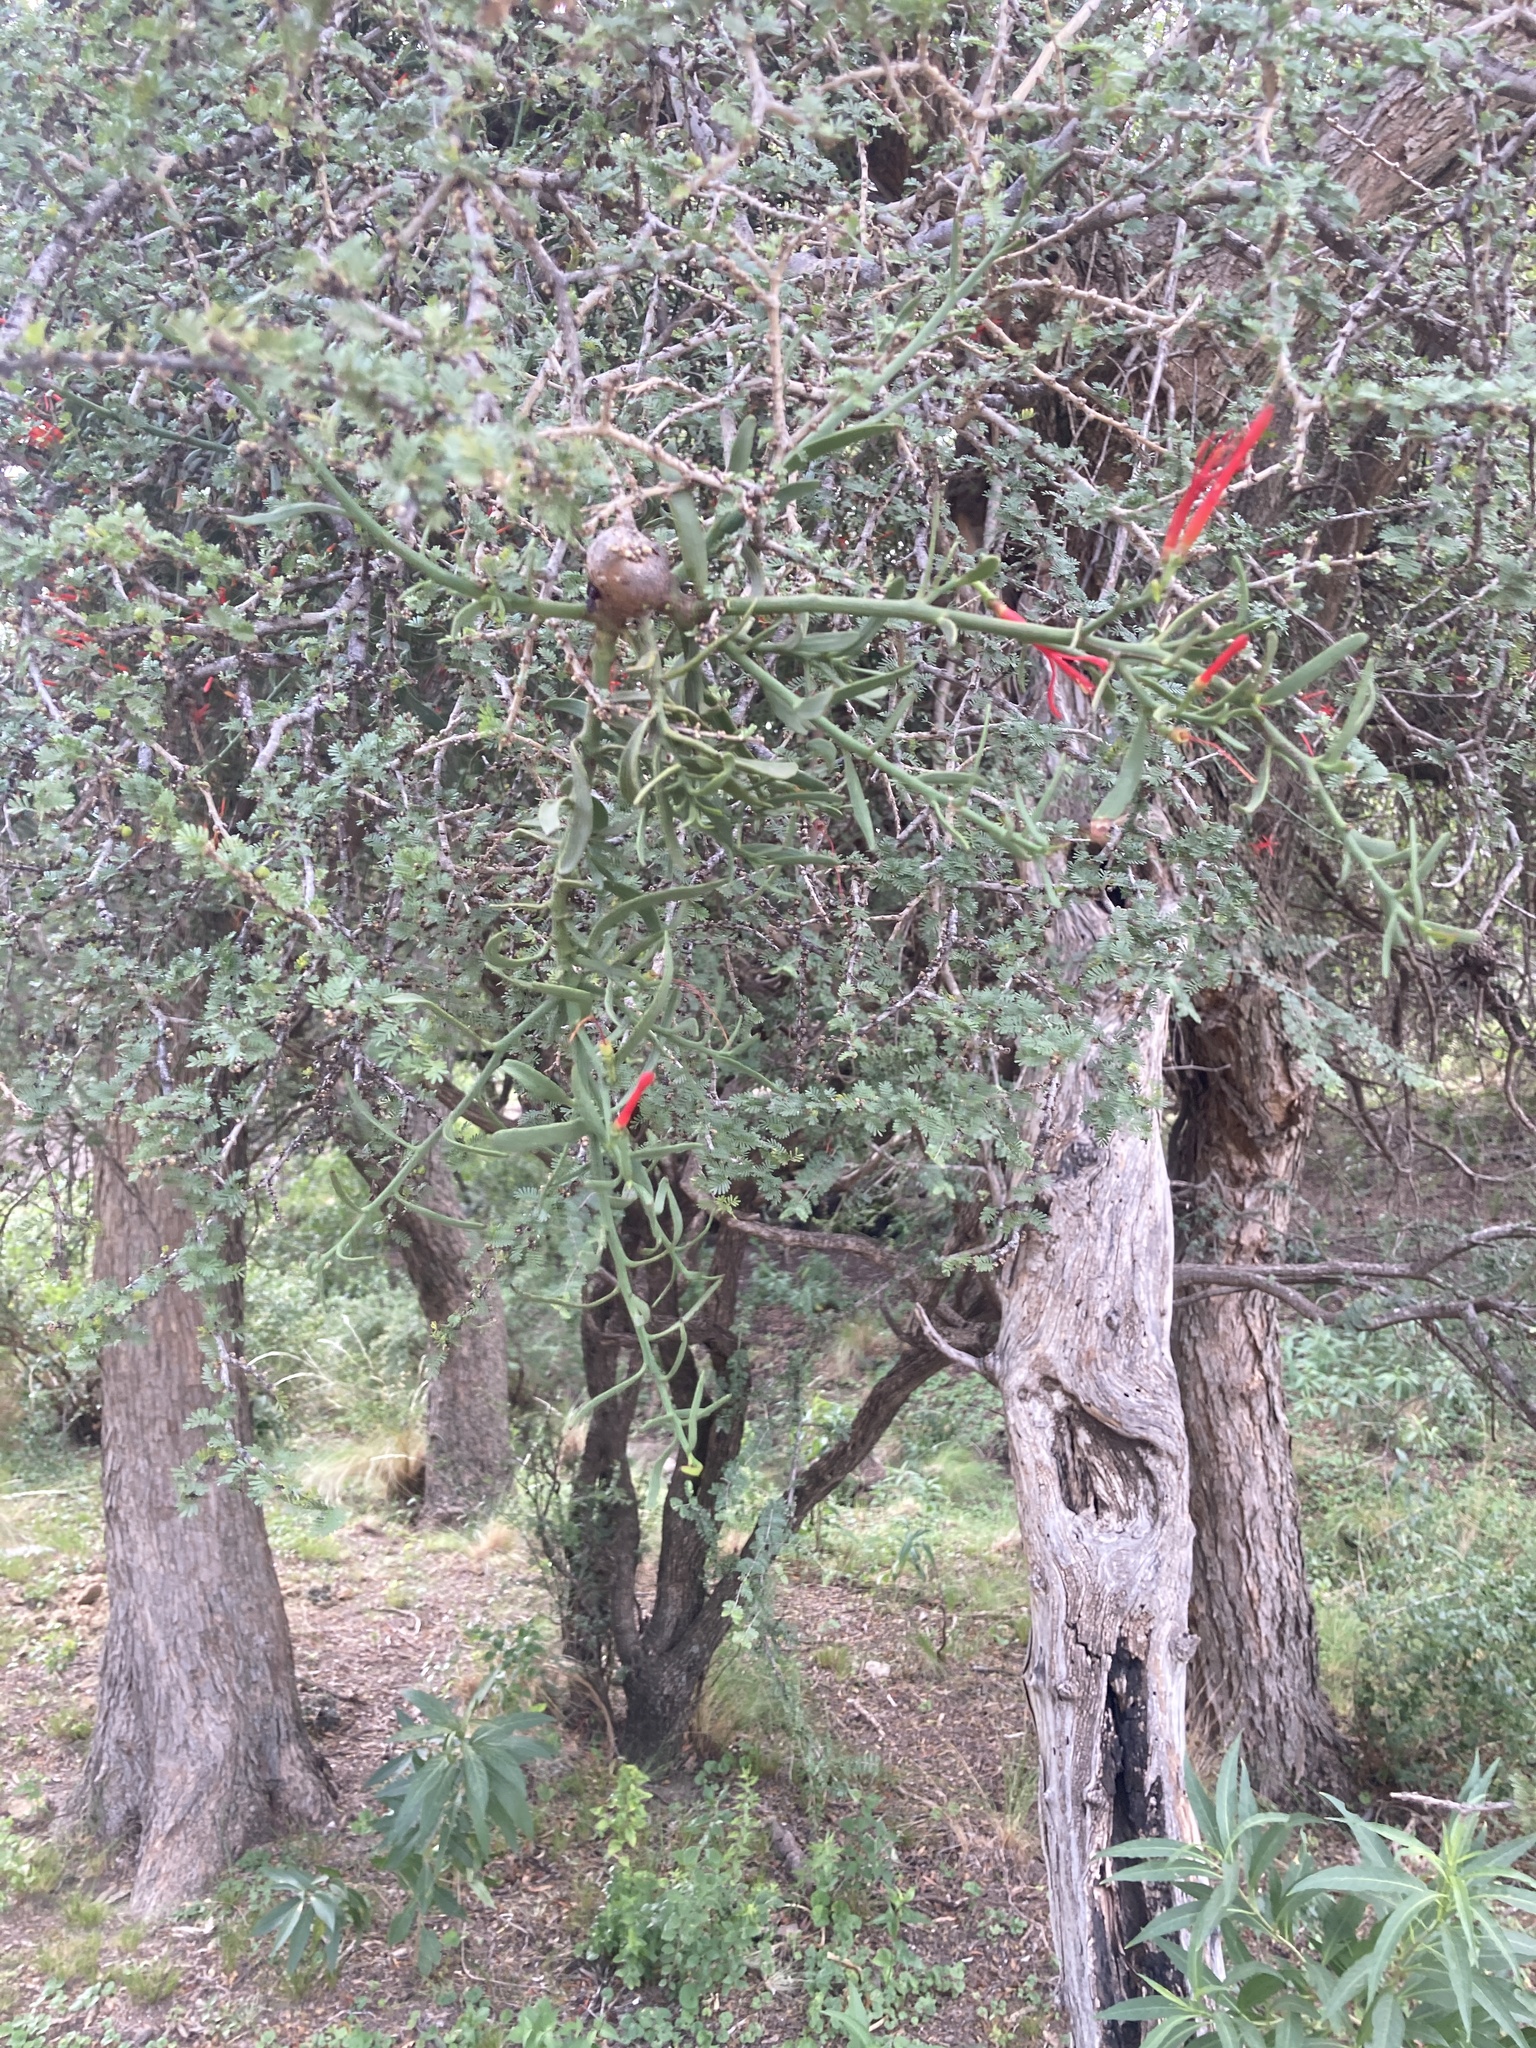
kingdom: Plantae
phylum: Tracheophyta
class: Magnoliopsida
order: Santalales
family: Loranthaceae
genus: Ligaria
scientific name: Ligaria cuneifolia
